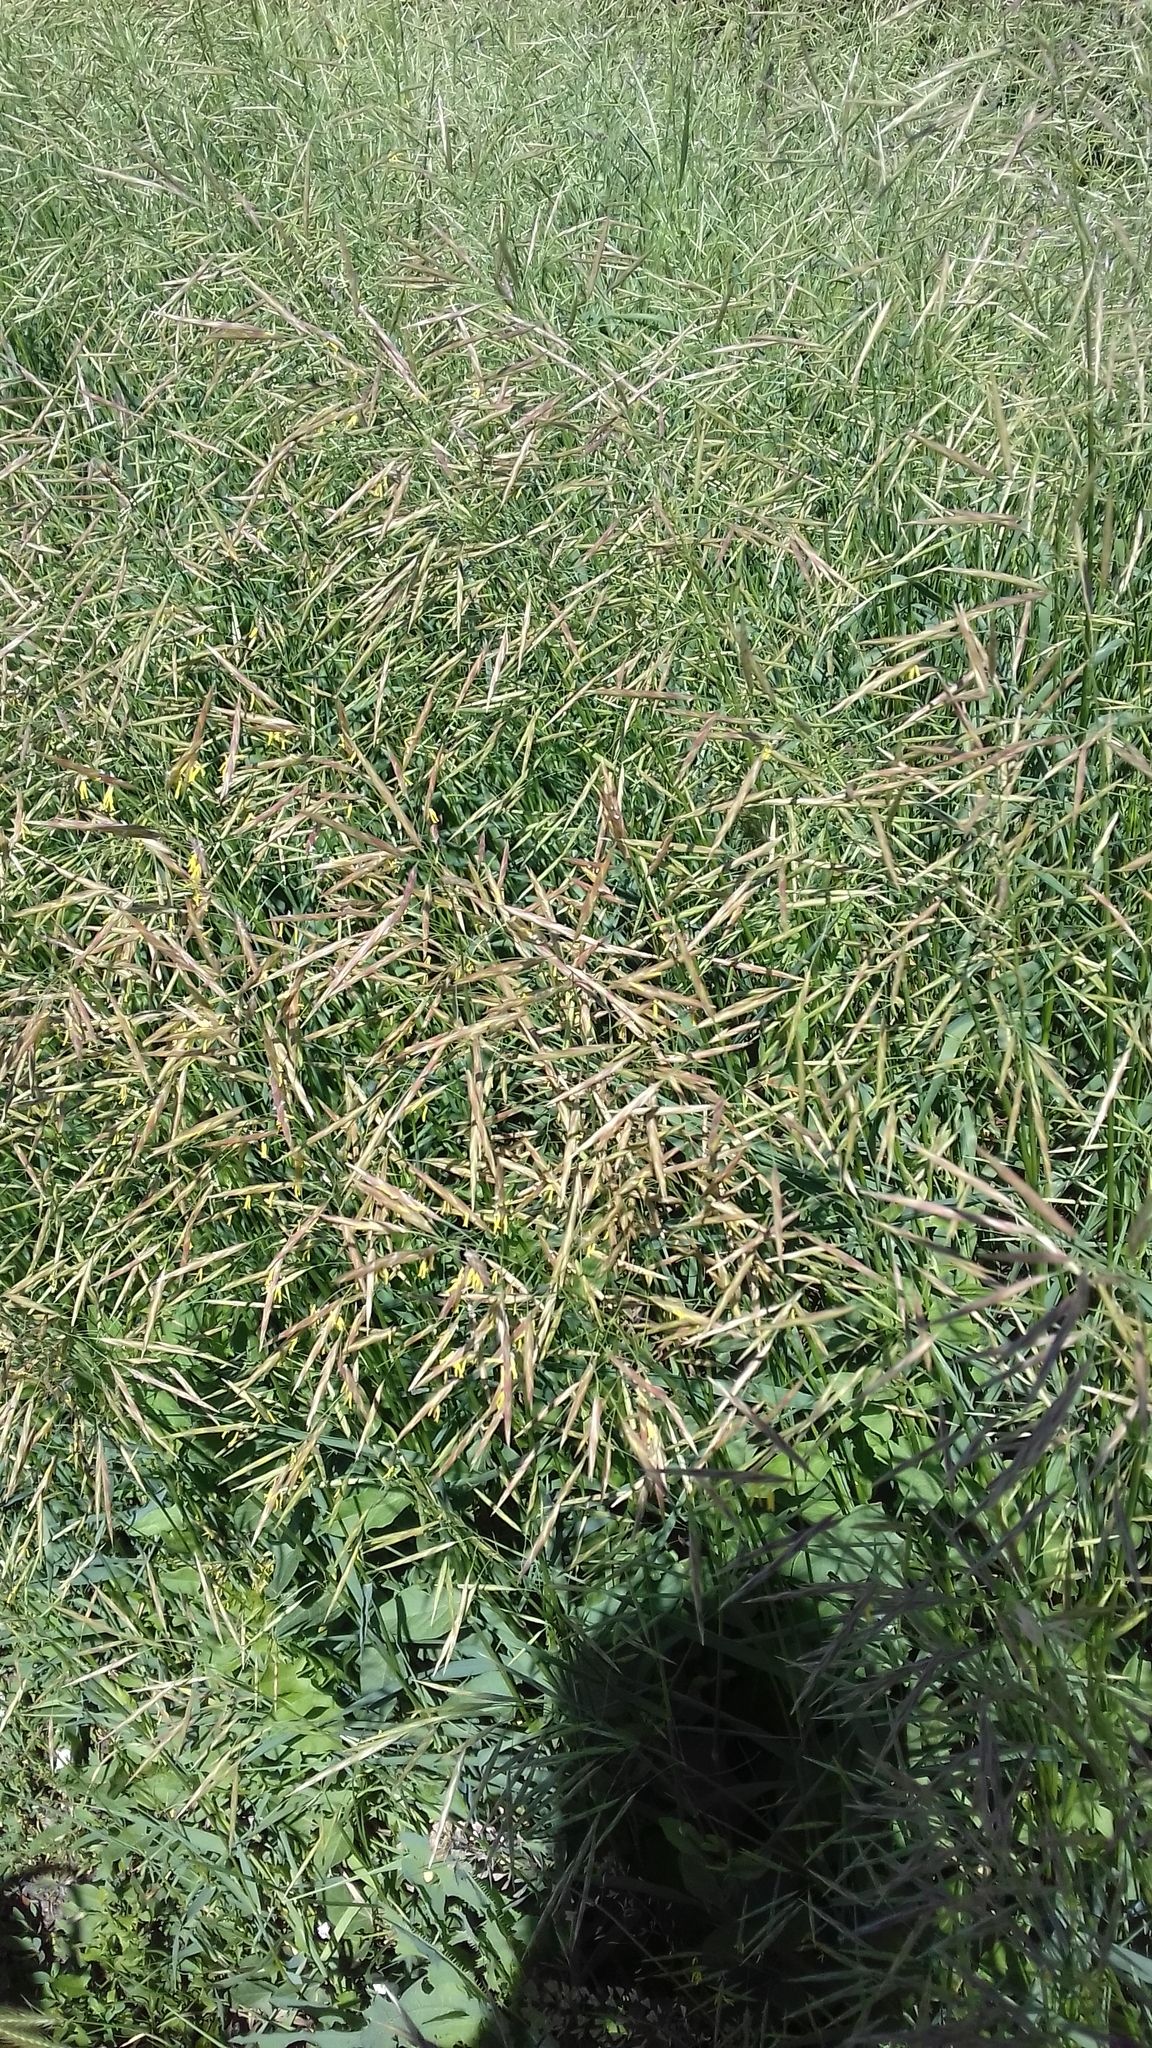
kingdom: Plantae
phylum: Tracheophyta
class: Liliopsida
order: Poales
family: Poaceae
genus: Bromus
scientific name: Bromus inermis
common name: Smooth brome
